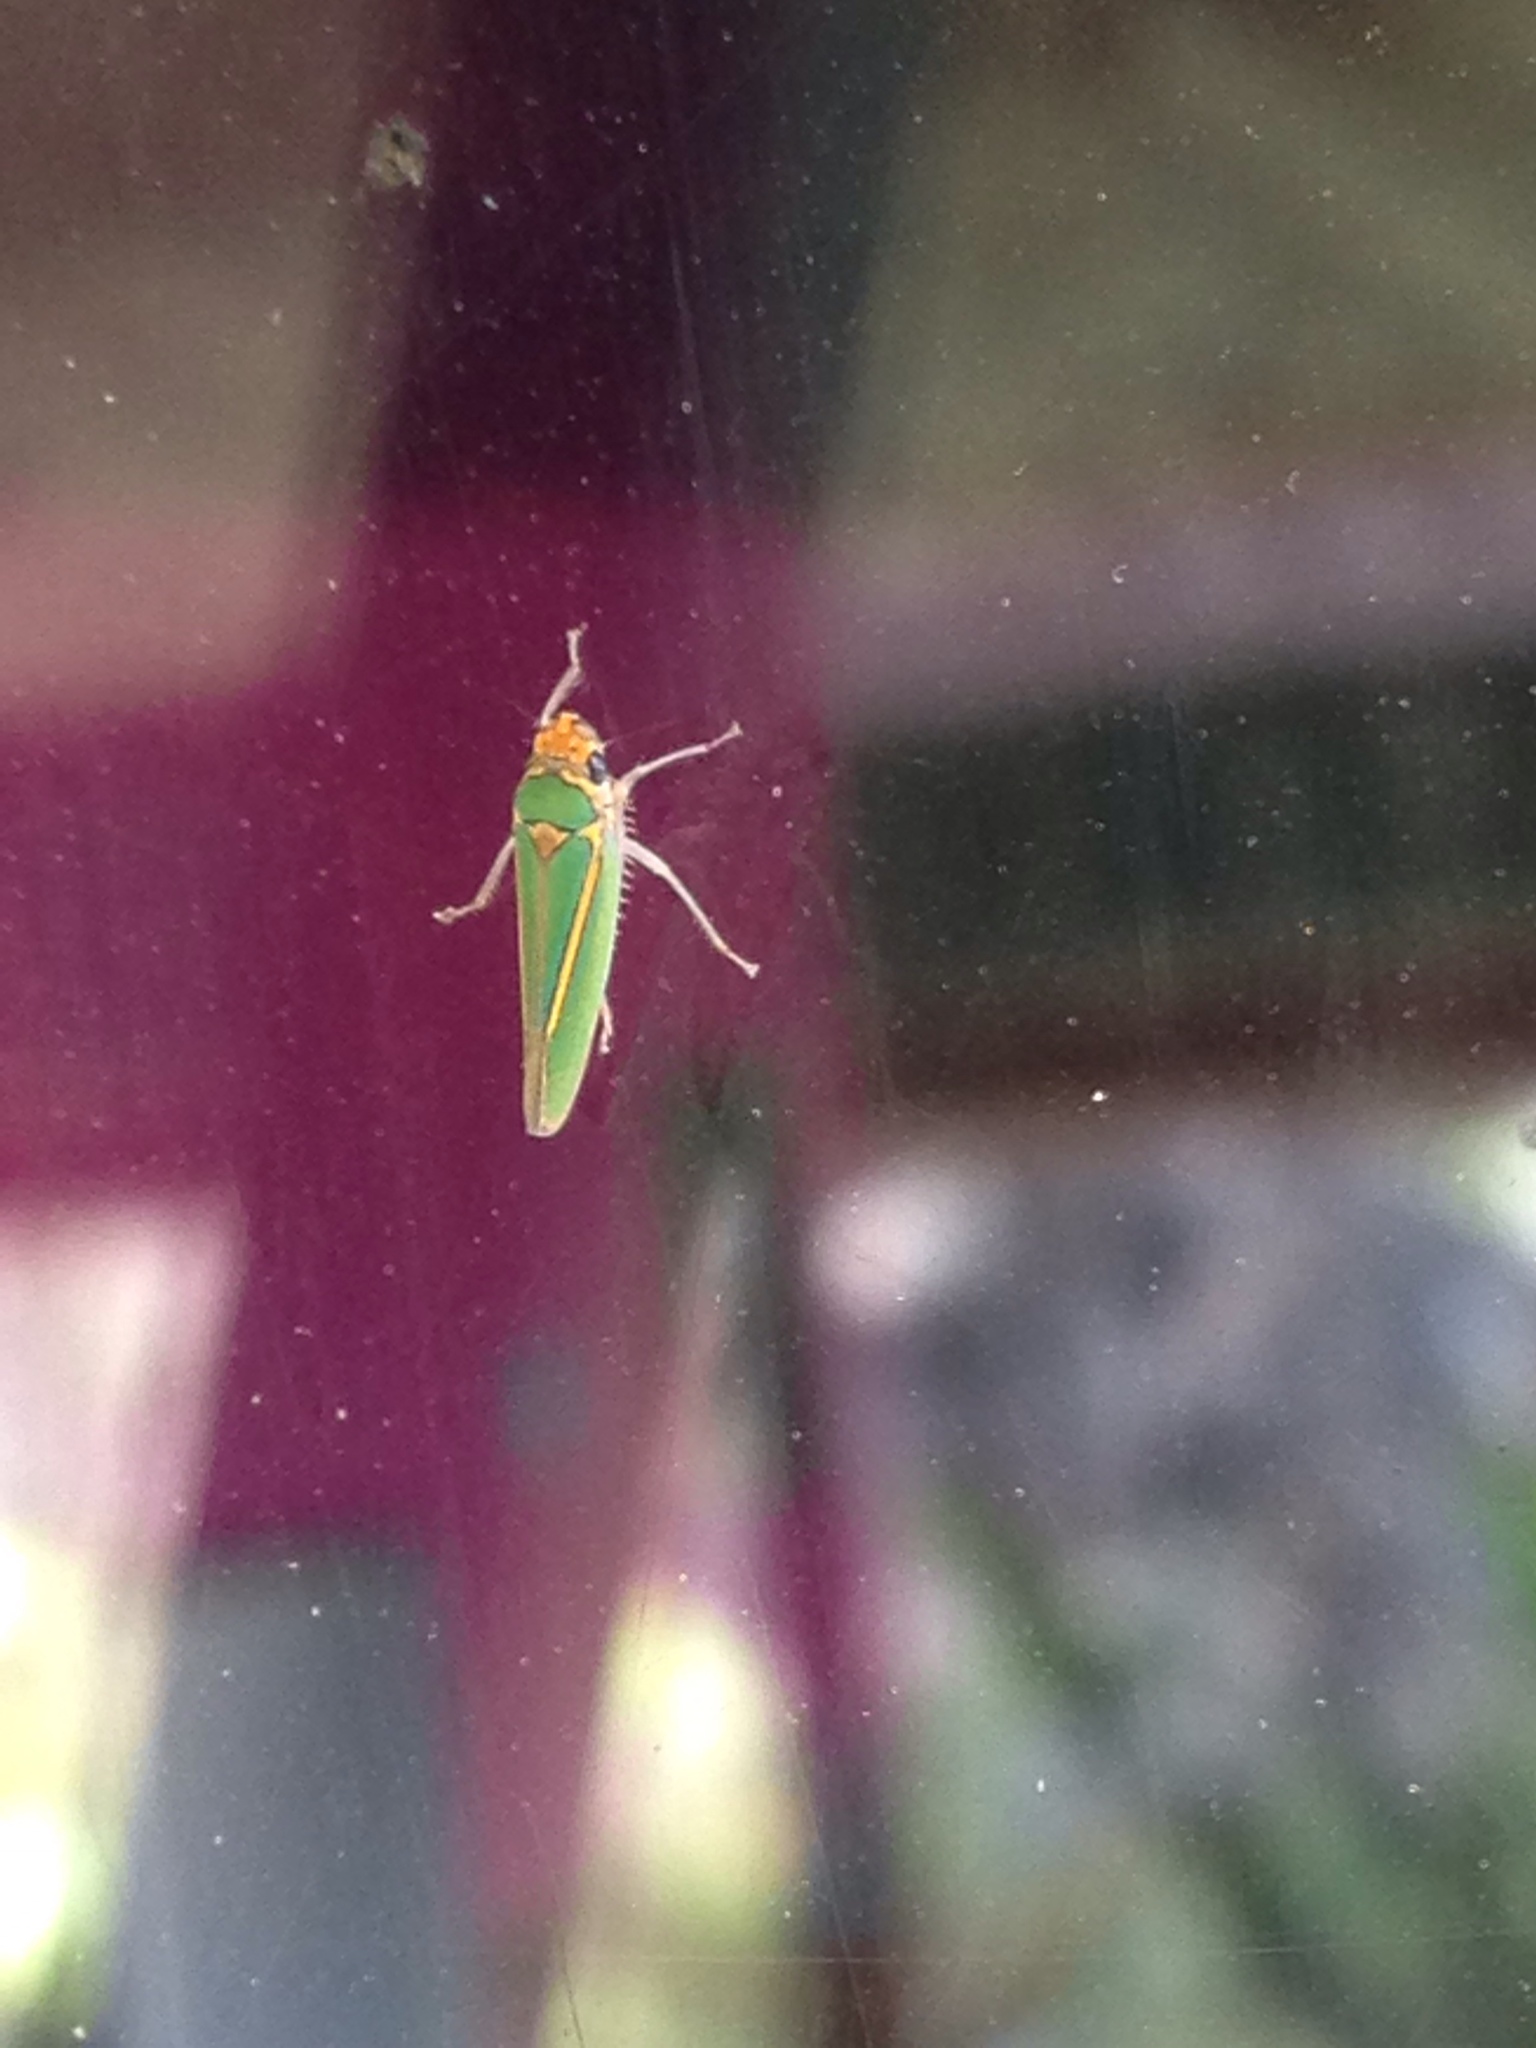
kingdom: Animalia
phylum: Arthropoda
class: Insecta
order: Hemiptera
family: Cicadellidae
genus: Graphocephala
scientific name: Graphocephala aurolineata
